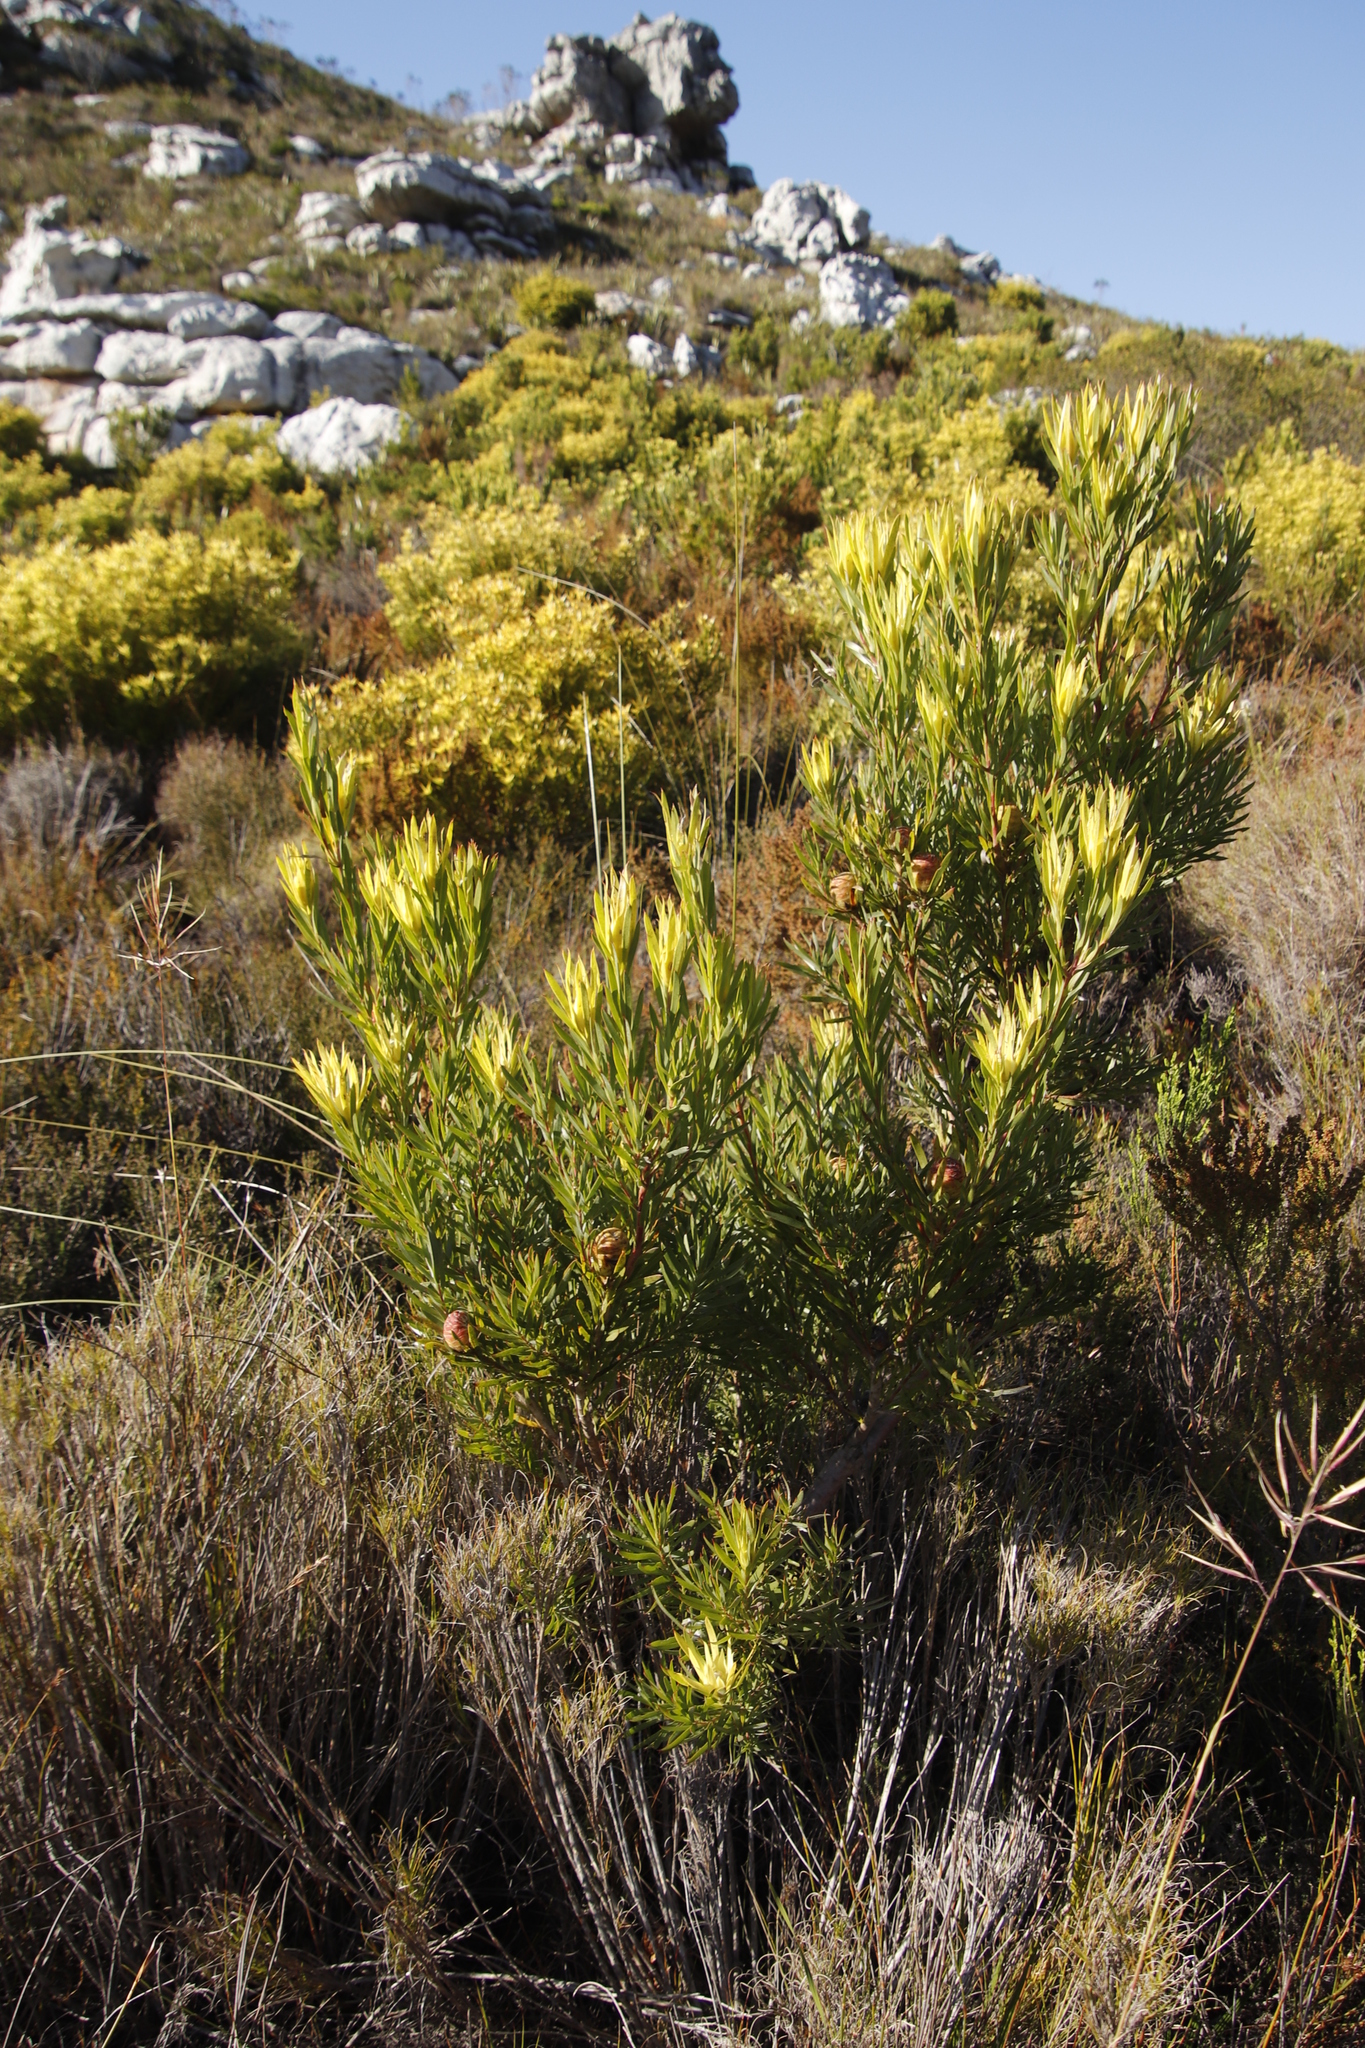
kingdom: Plantae
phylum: Tracheophyta
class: Magnoliopsida
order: Proteales
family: Proteaceae
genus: Leucadendron
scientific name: Leucadendron xanthoconus
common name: Sickle-leaf conebush
